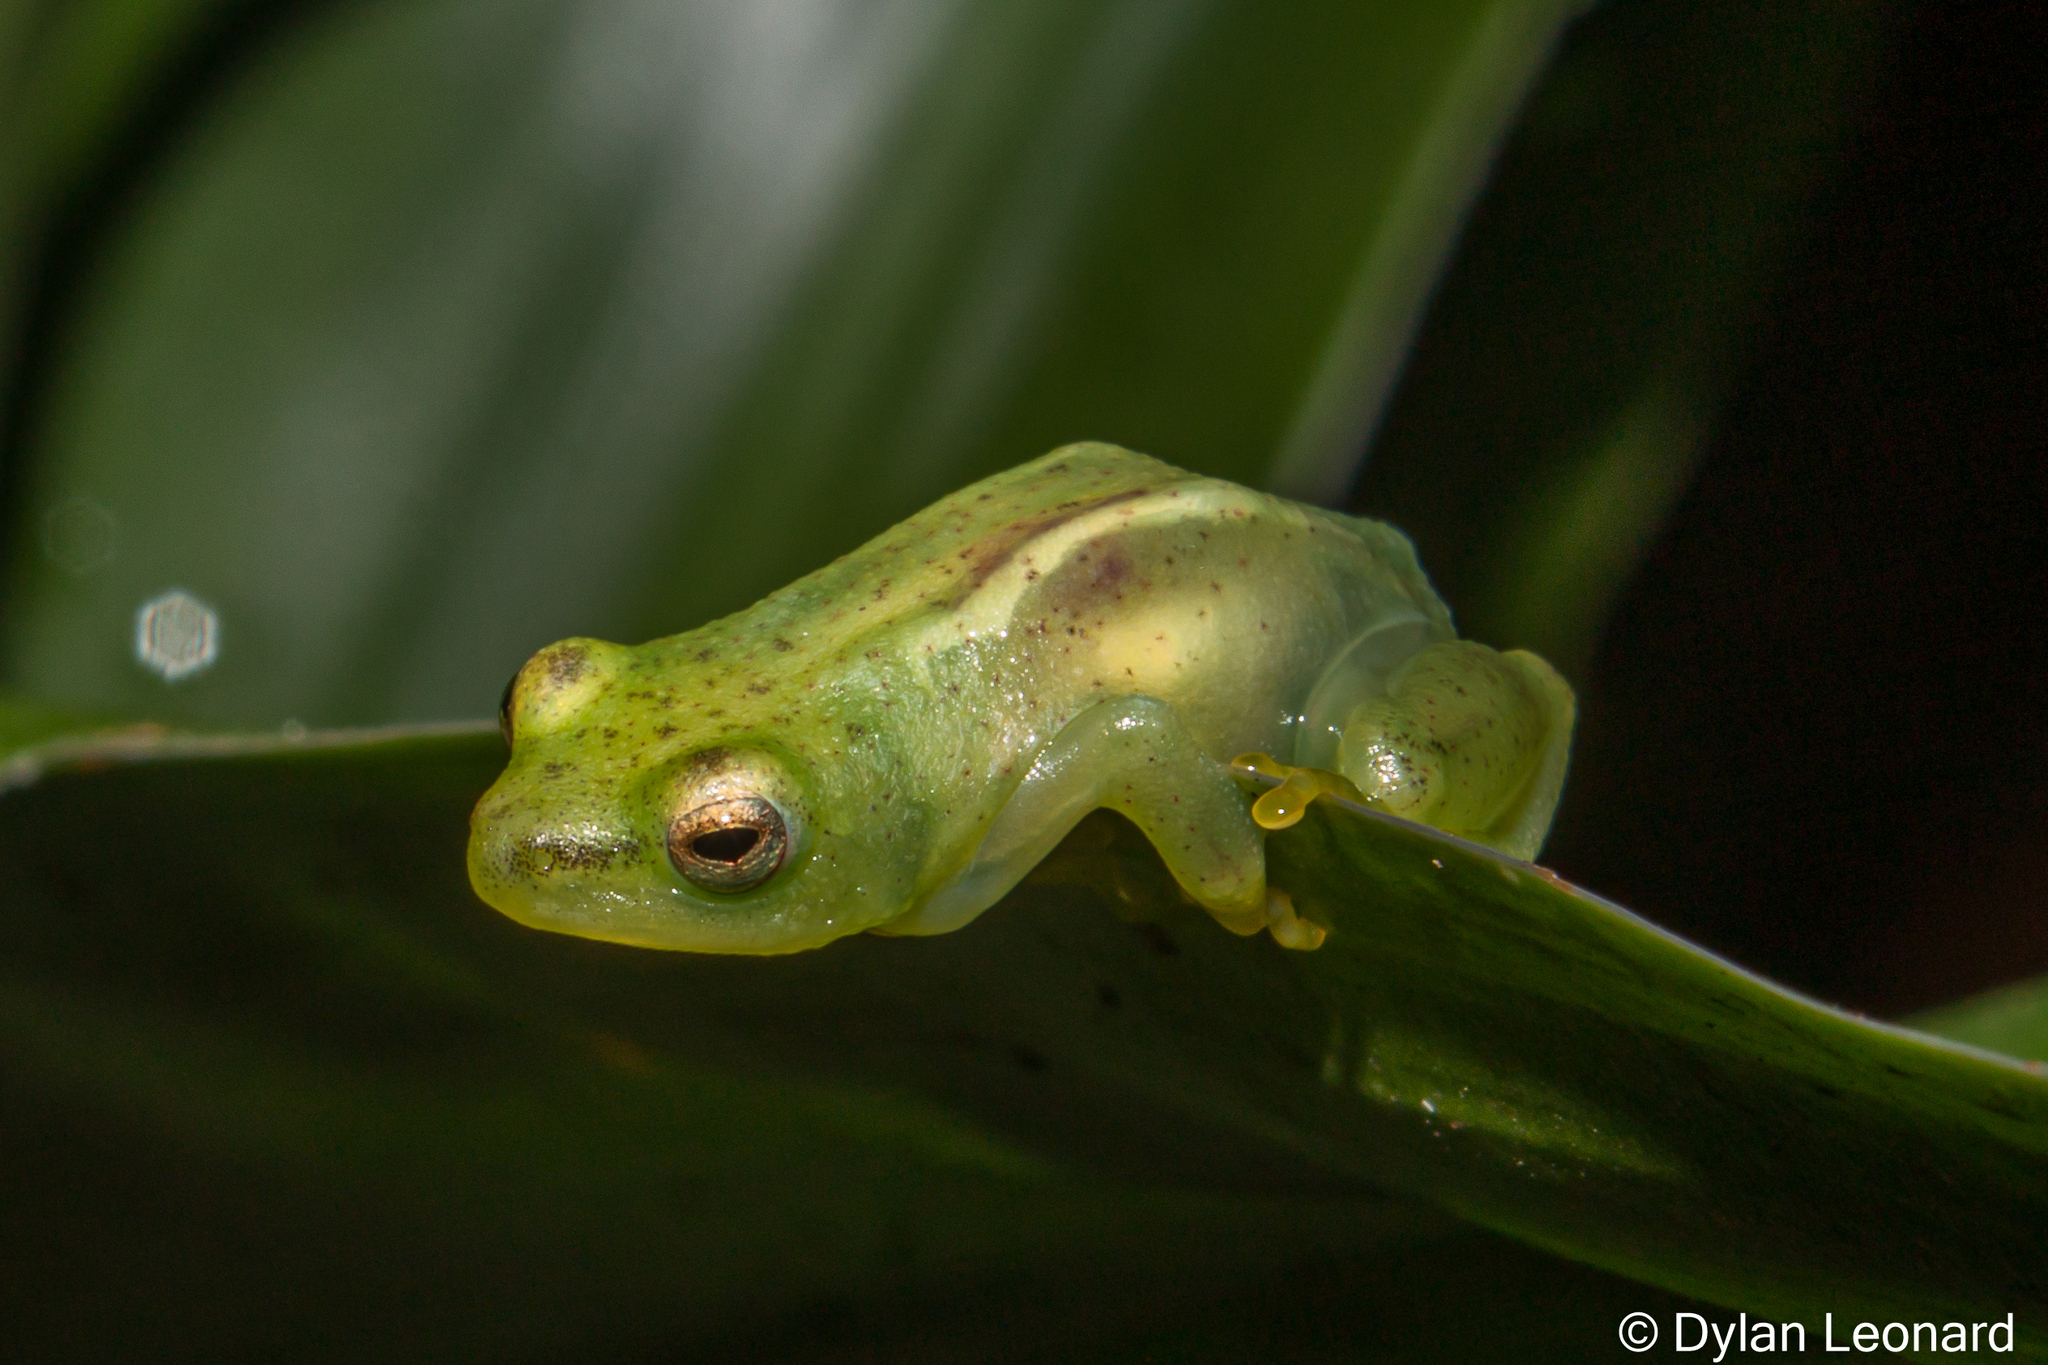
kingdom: Animalia
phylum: Chordata
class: Amphibia
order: Anura
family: Hyperoliidae
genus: Hyperolius
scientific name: Hyperolius pusillus
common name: Water lily reed frog
